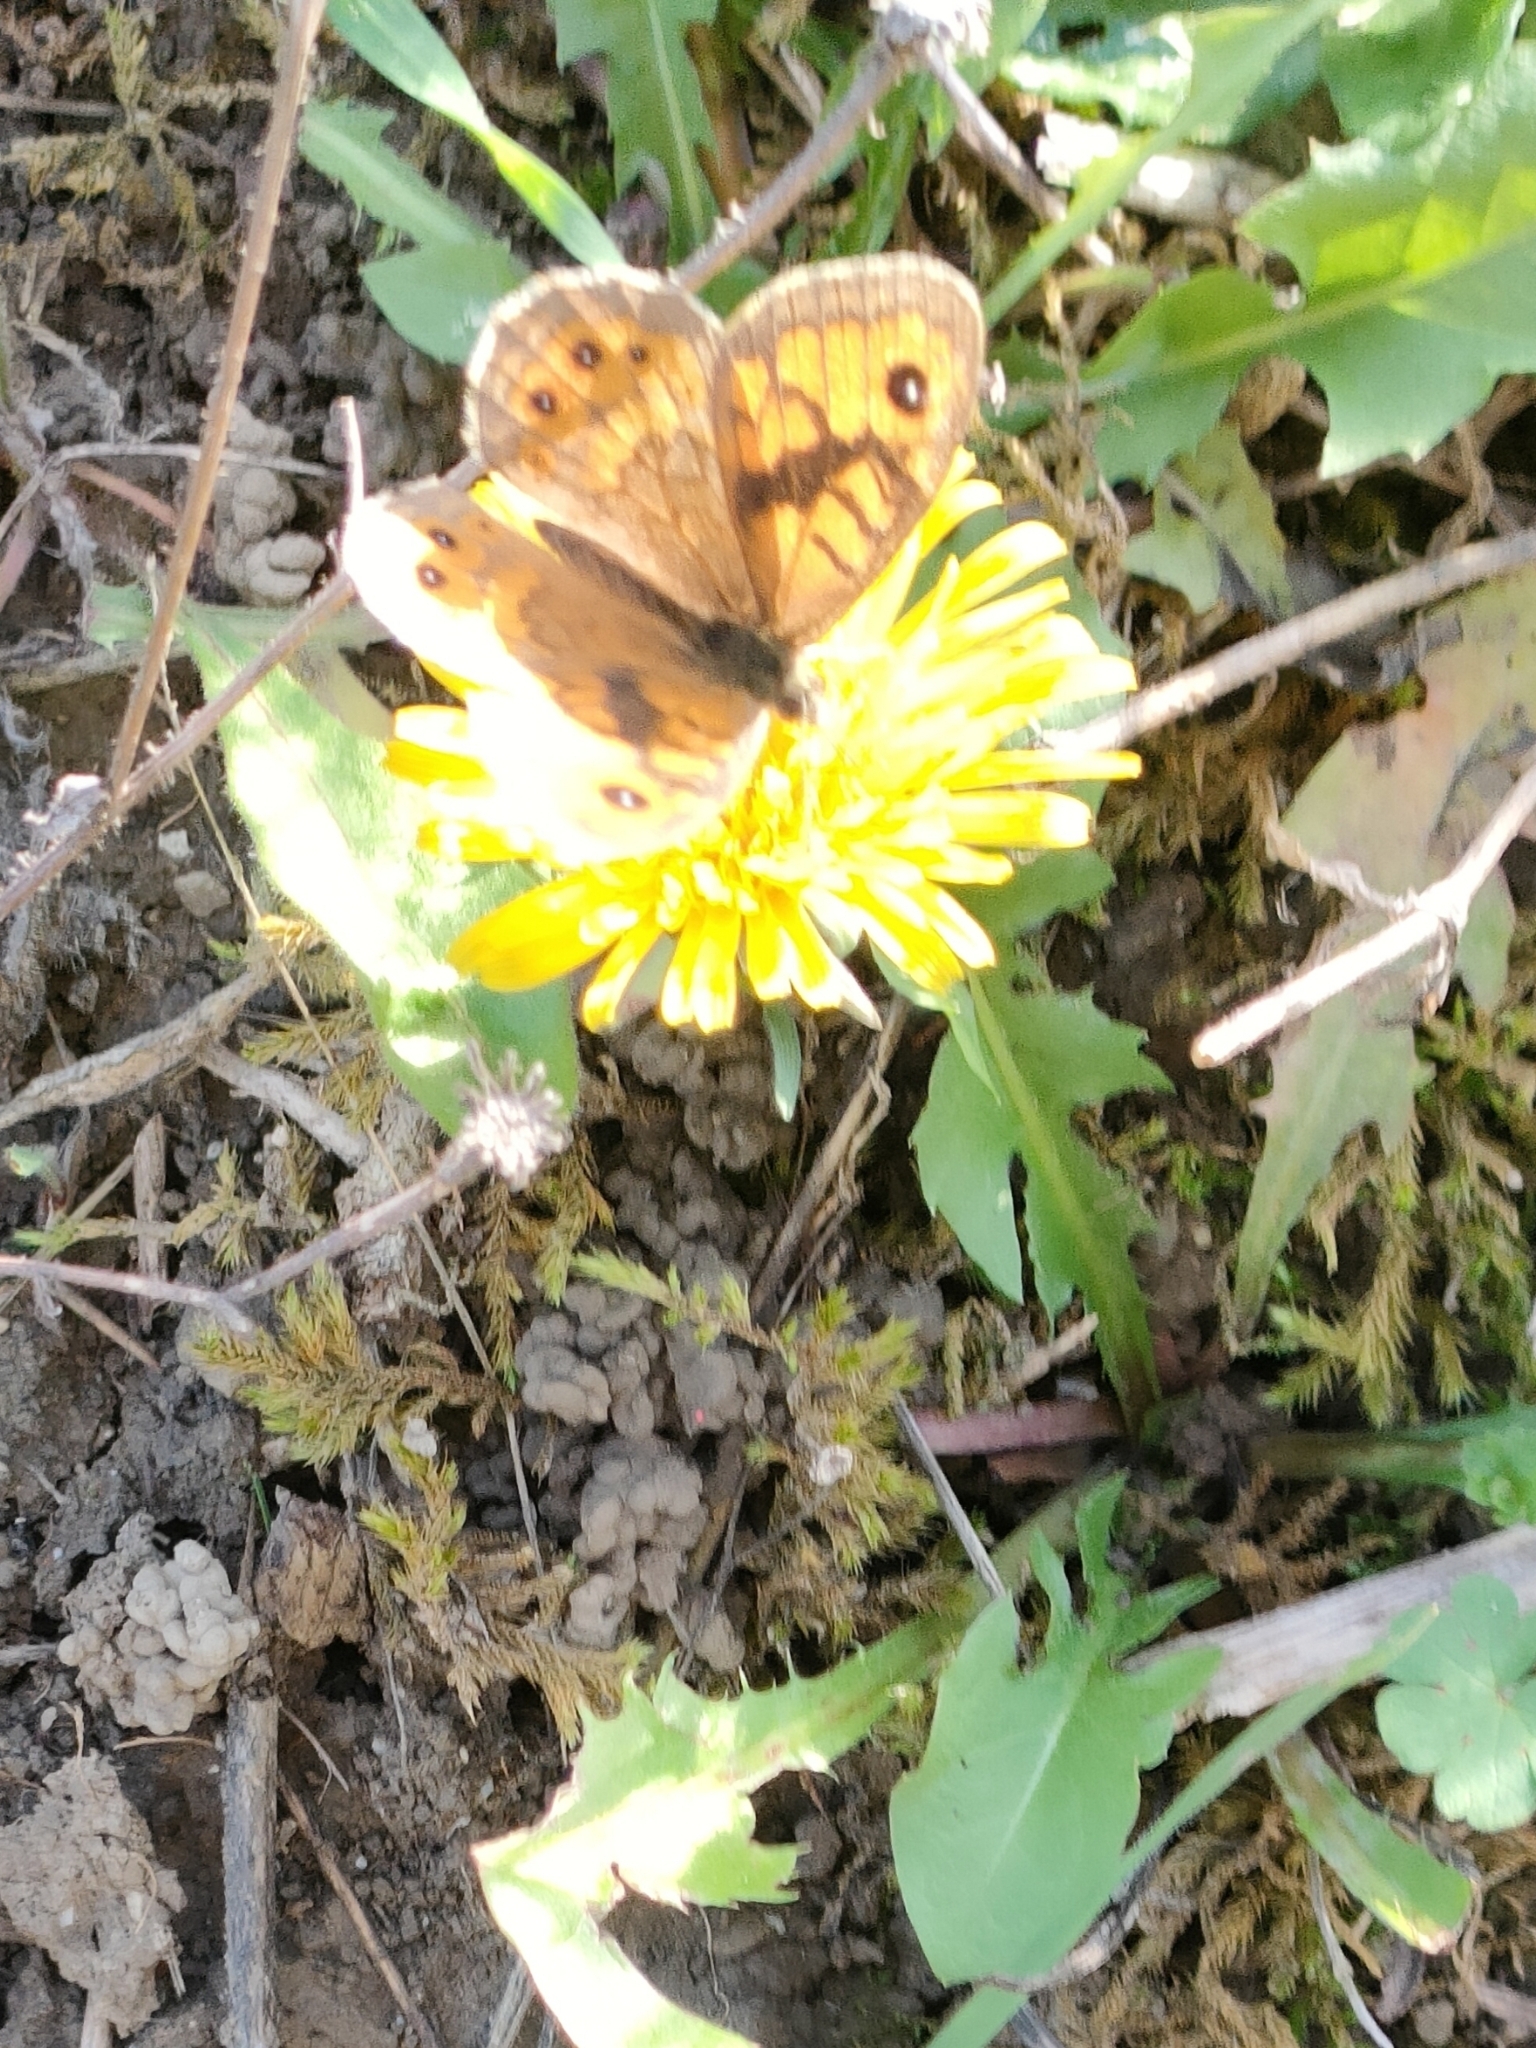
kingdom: Animalia
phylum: Arthropoda
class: Insecta
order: Lepidoptera
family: Nymphalidae
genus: Pararge
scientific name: Pararge Lasiommata megera
